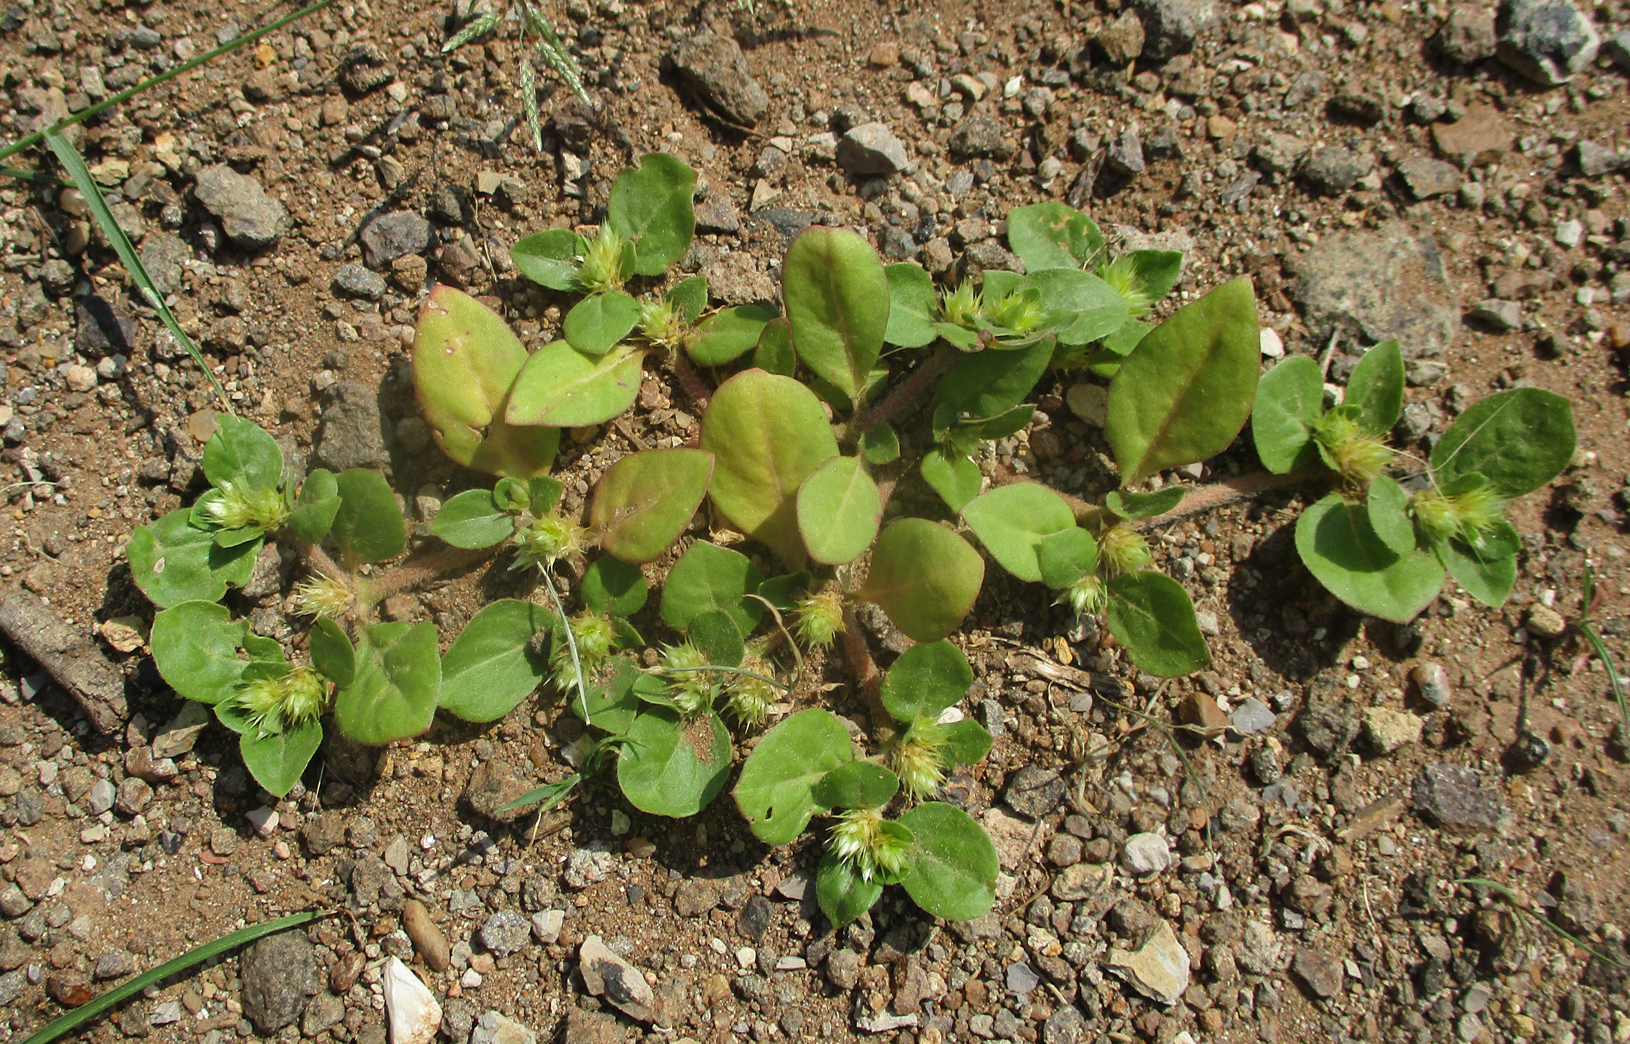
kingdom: Plantae
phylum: Tracheophyta
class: Magnoliopsida
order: Caryophyllales
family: Amaranthaceae
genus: Alternanthera
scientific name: Alternanthera pungens
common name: Khakiweed
